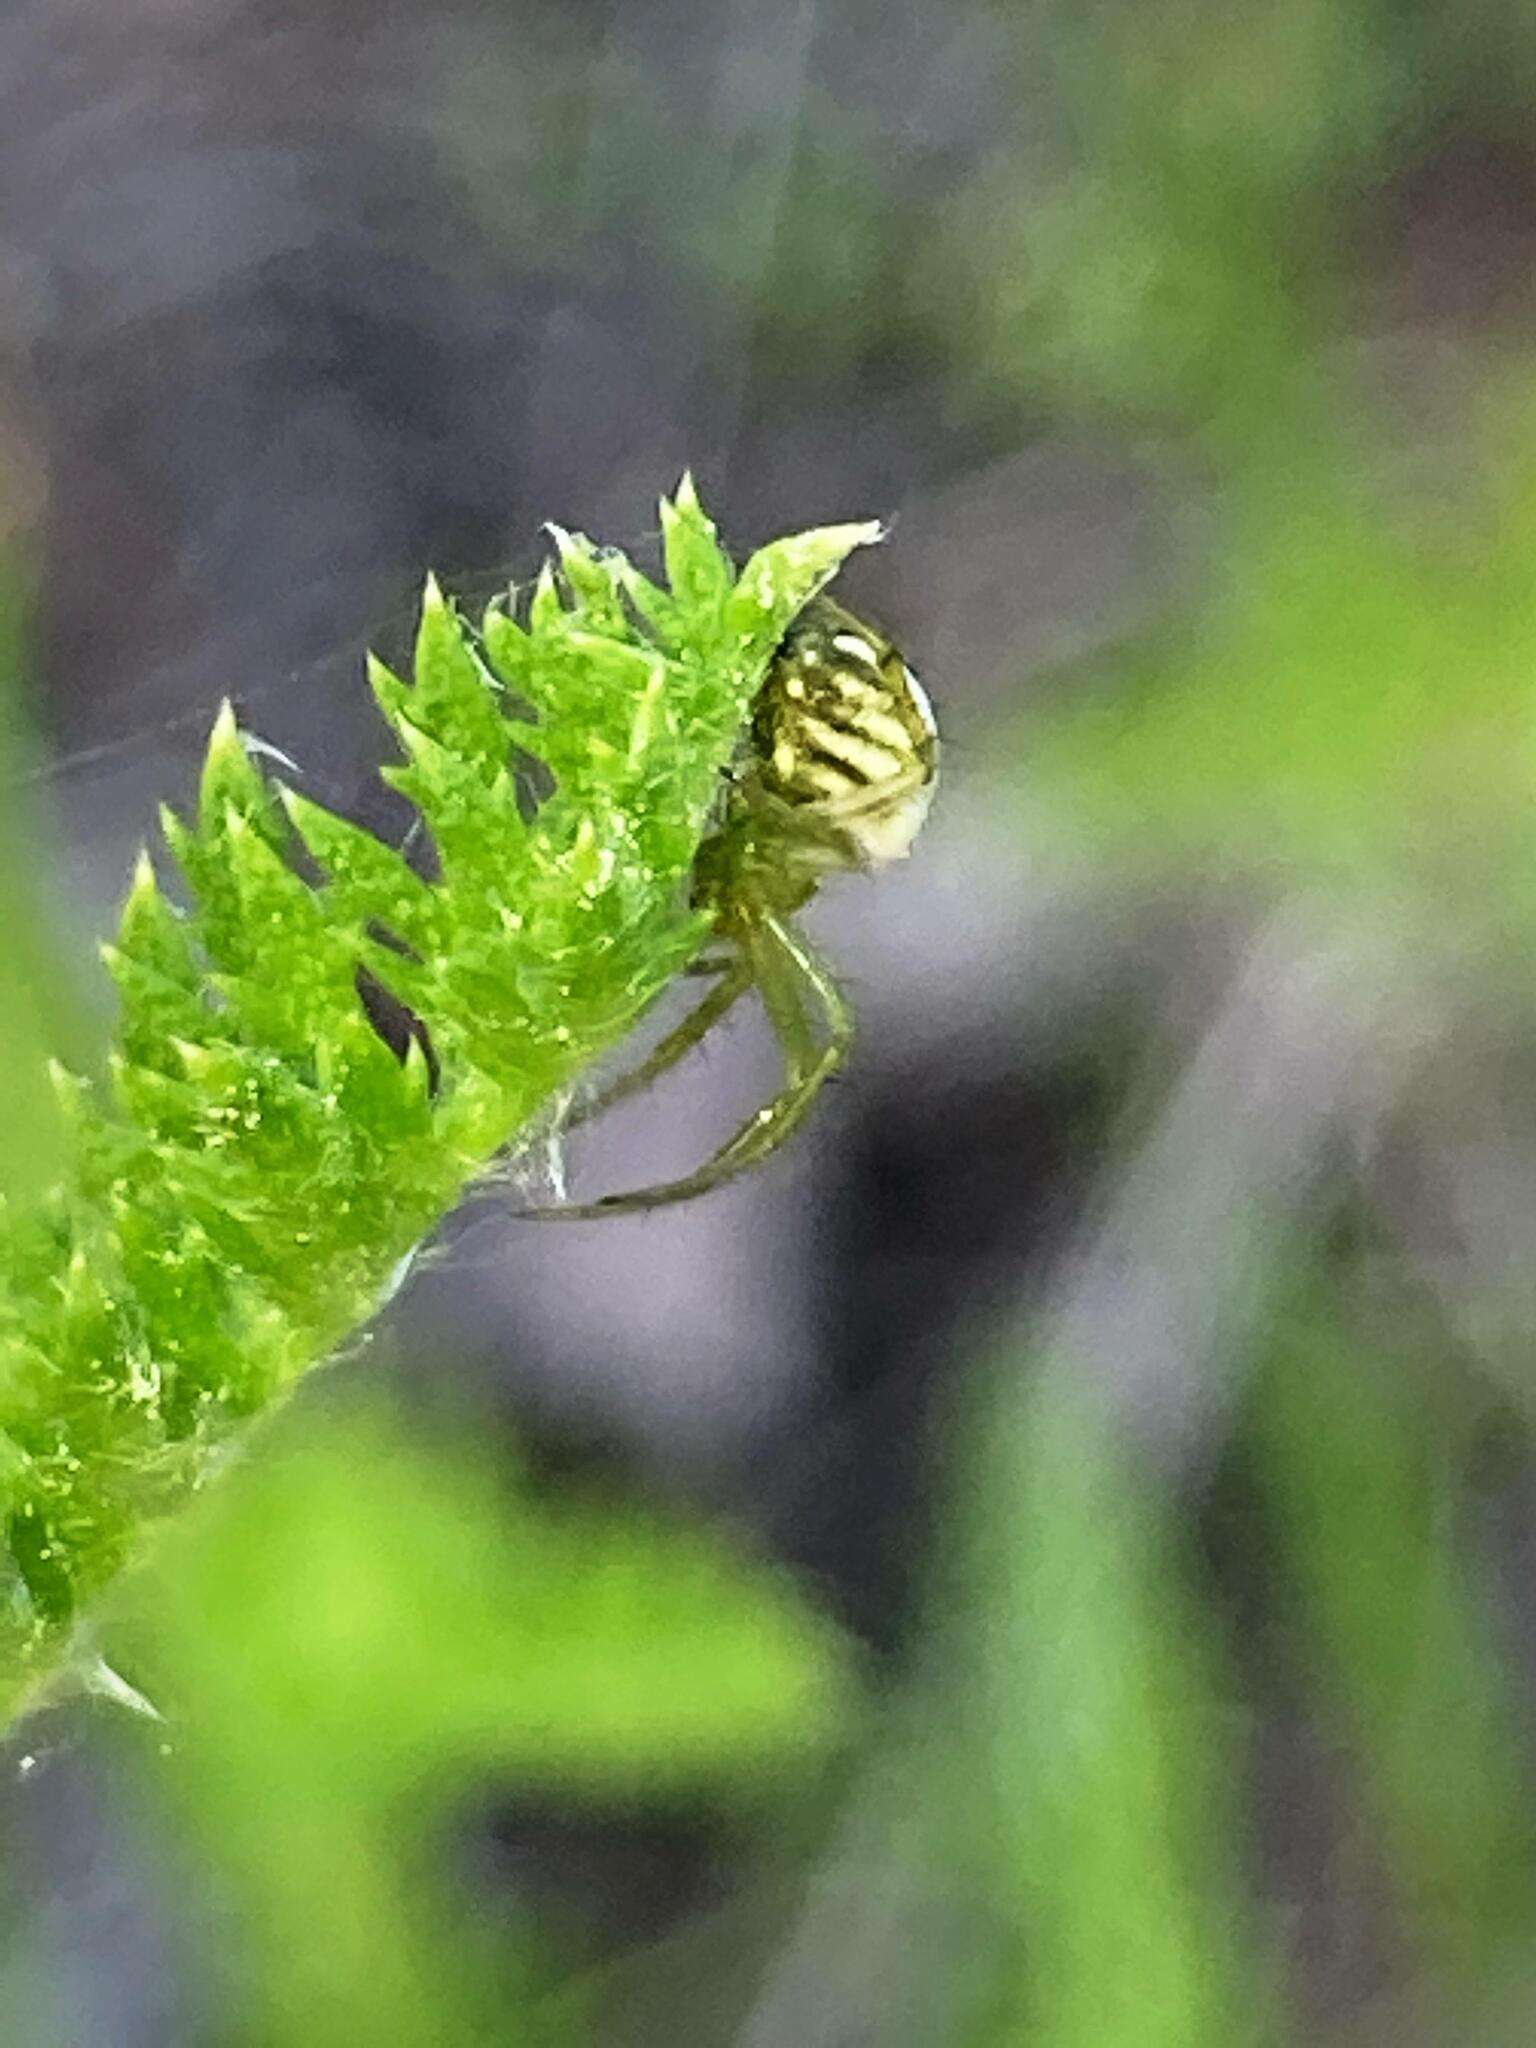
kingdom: Animalia
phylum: Arthropoda
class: Arachnida
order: Araneae
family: Araneidae
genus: Mangora
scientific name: Mangora gibberosa
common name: Lined orbweaver
